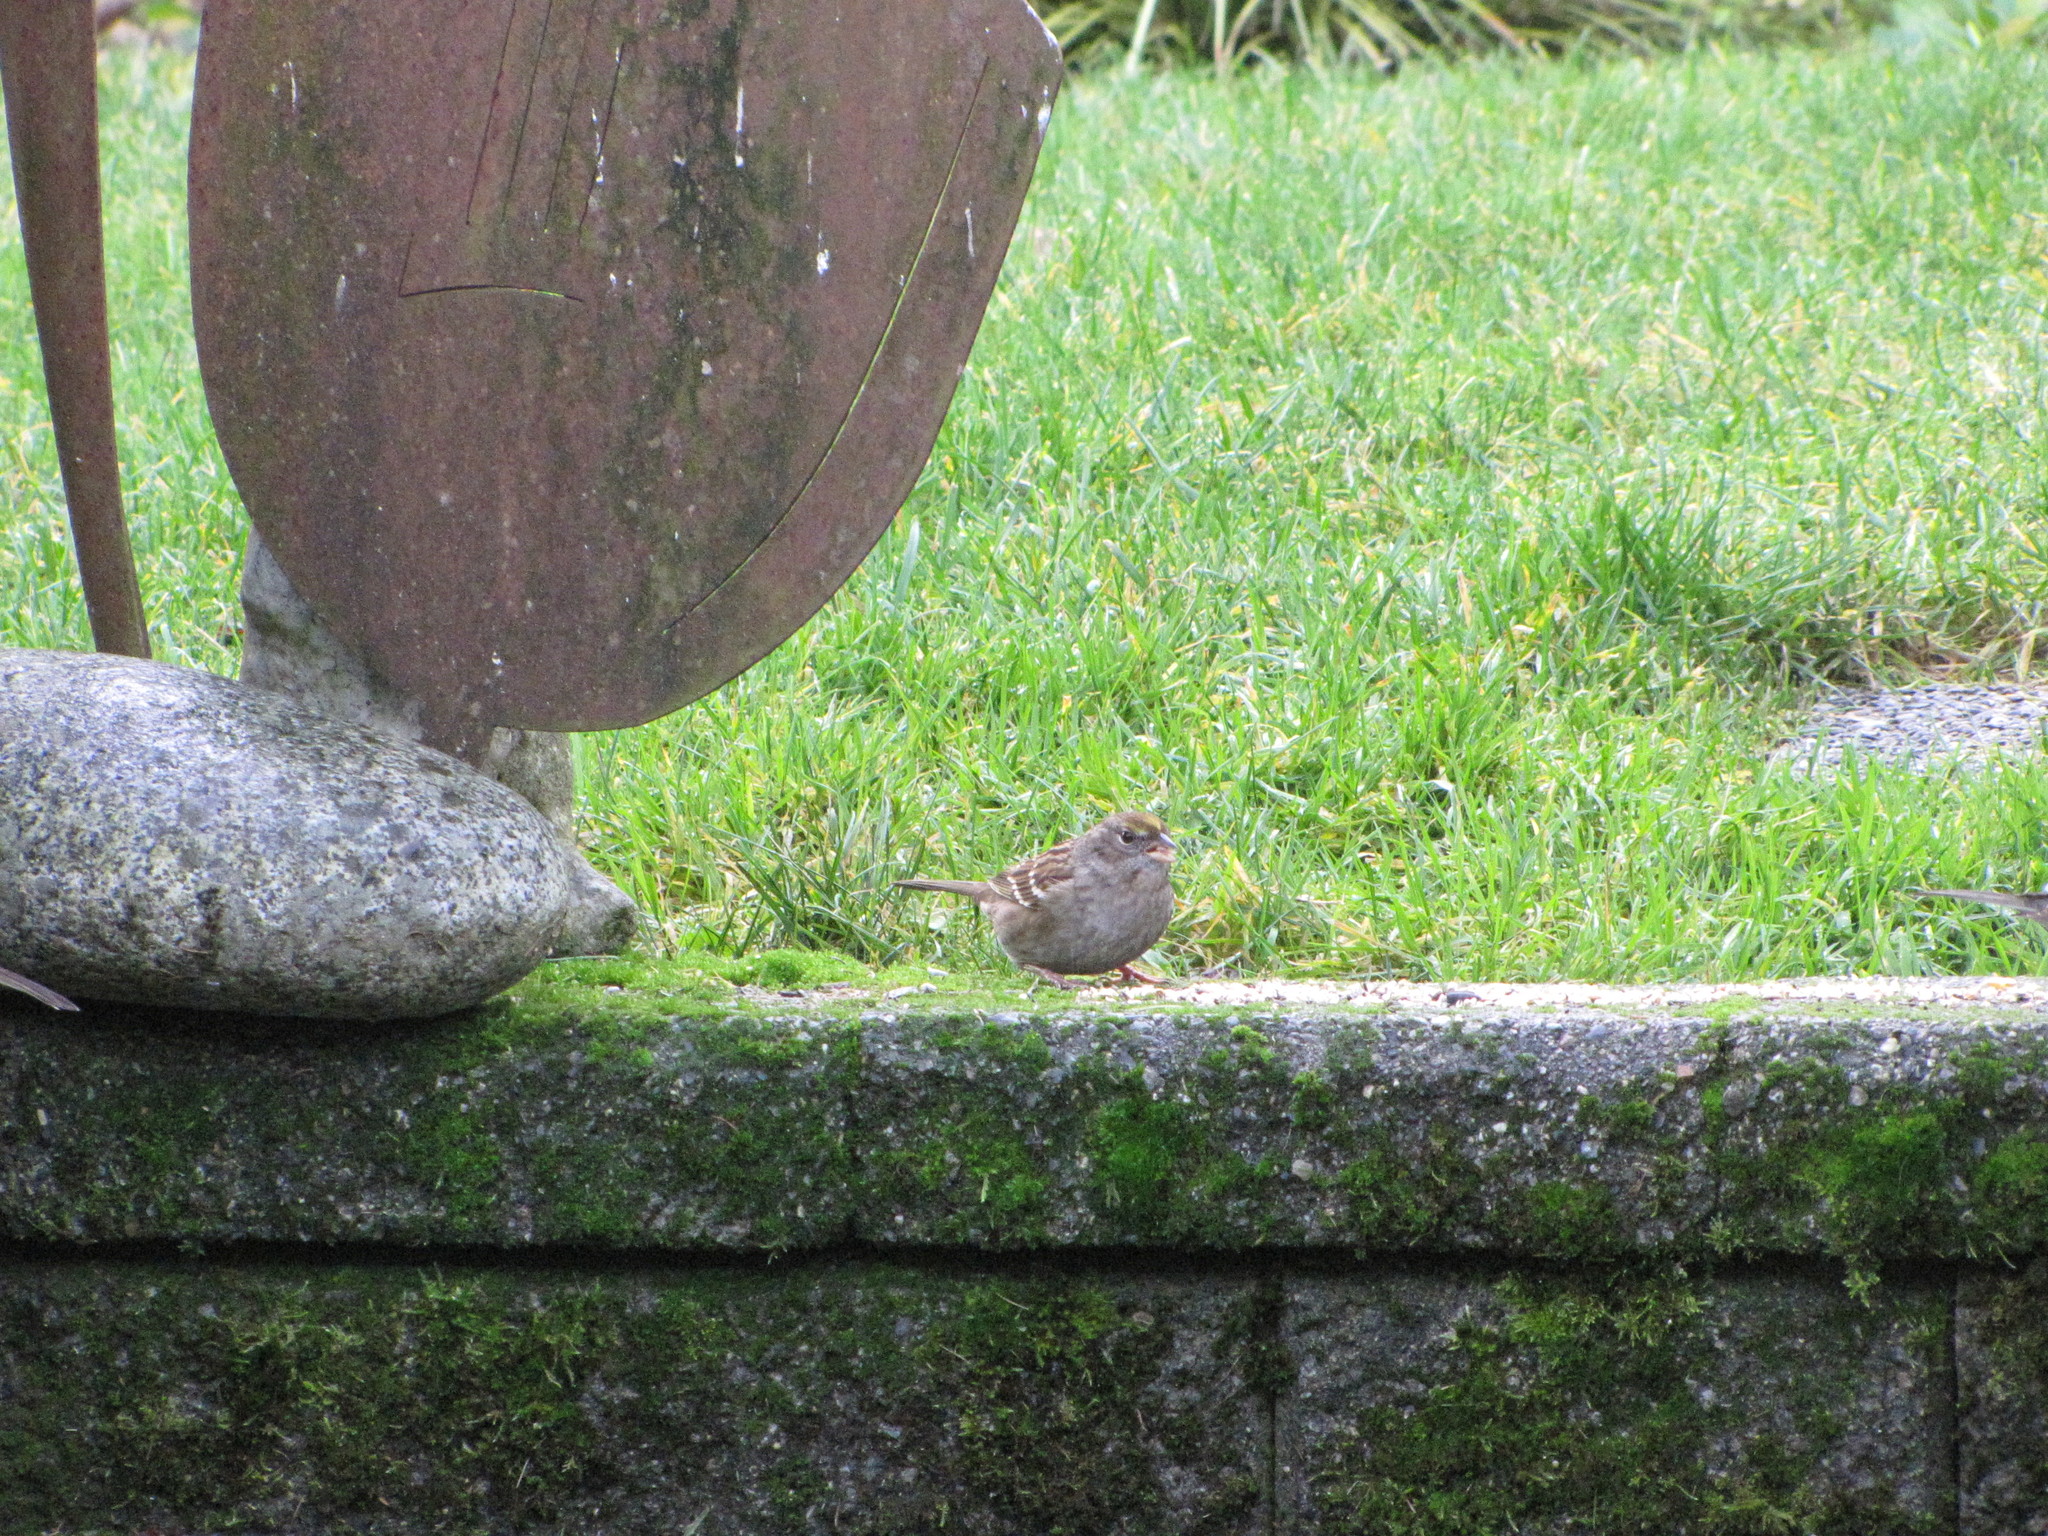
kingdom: Animalia
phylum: Chordata
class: Aves
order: Passeriformes
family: Passerellidae
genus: Zonotrichia
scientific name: Zonotrichia atricapilla
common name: Golden-crowned sparrow
